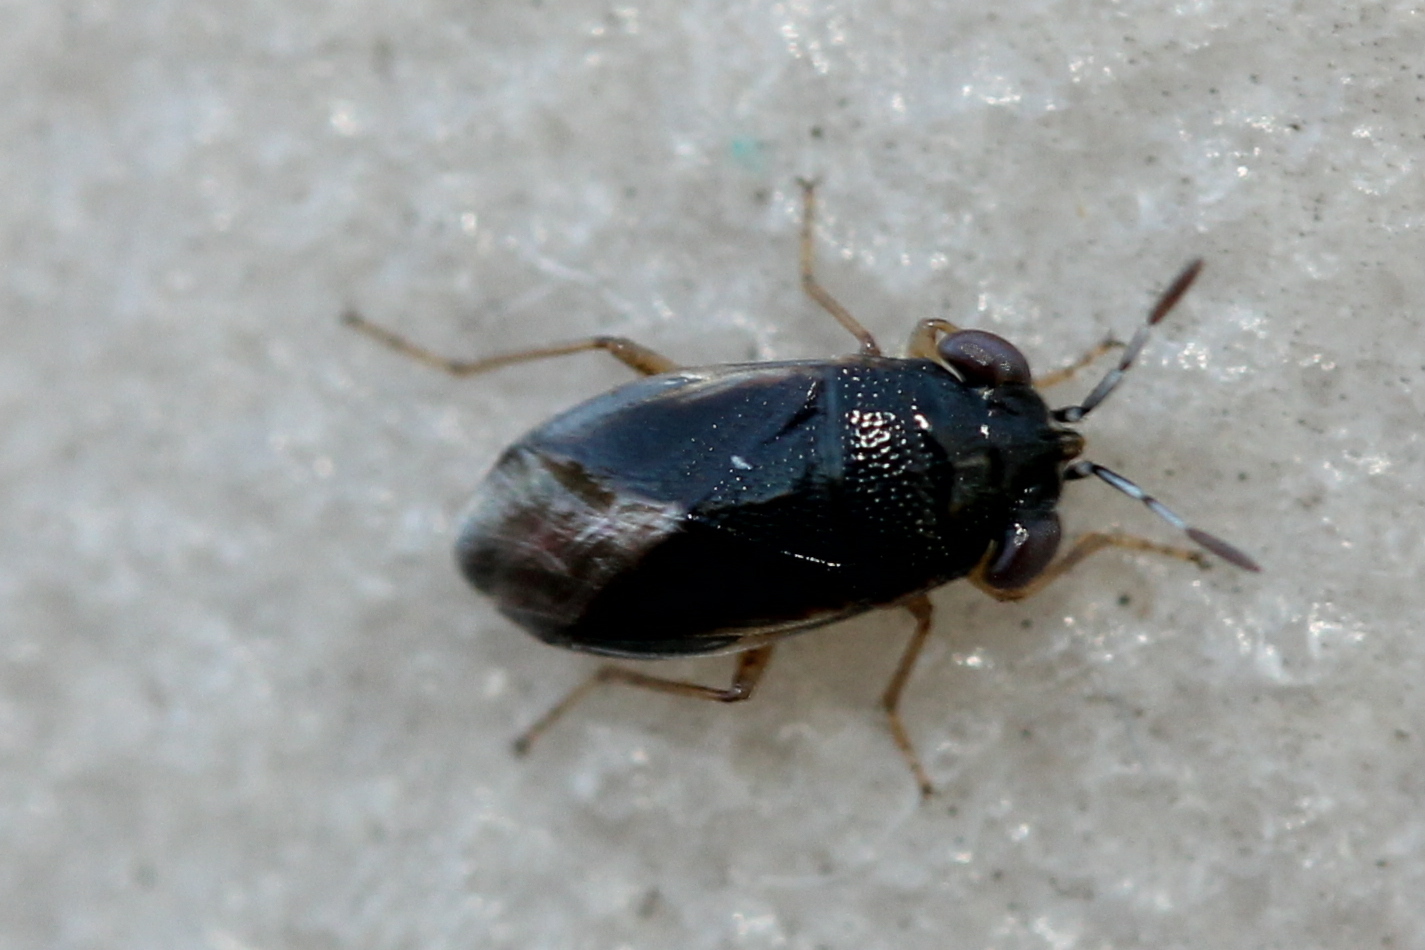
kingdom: Animalia
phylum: Arthropoda
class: Insecta
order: Hemiptera
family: Geocoridae
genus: Geocoris
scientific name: Geocoris uliginosus
